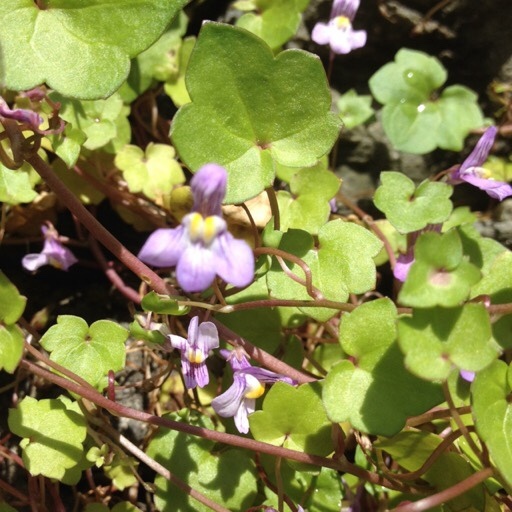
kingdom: Plantae
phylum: Tracheophyta
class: Magnoliopsida
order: Lamiales
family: Plantaginaceae
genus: Cymbalaria
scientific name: Cymbalaria muralis
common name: Ivy-leaved toadflax
